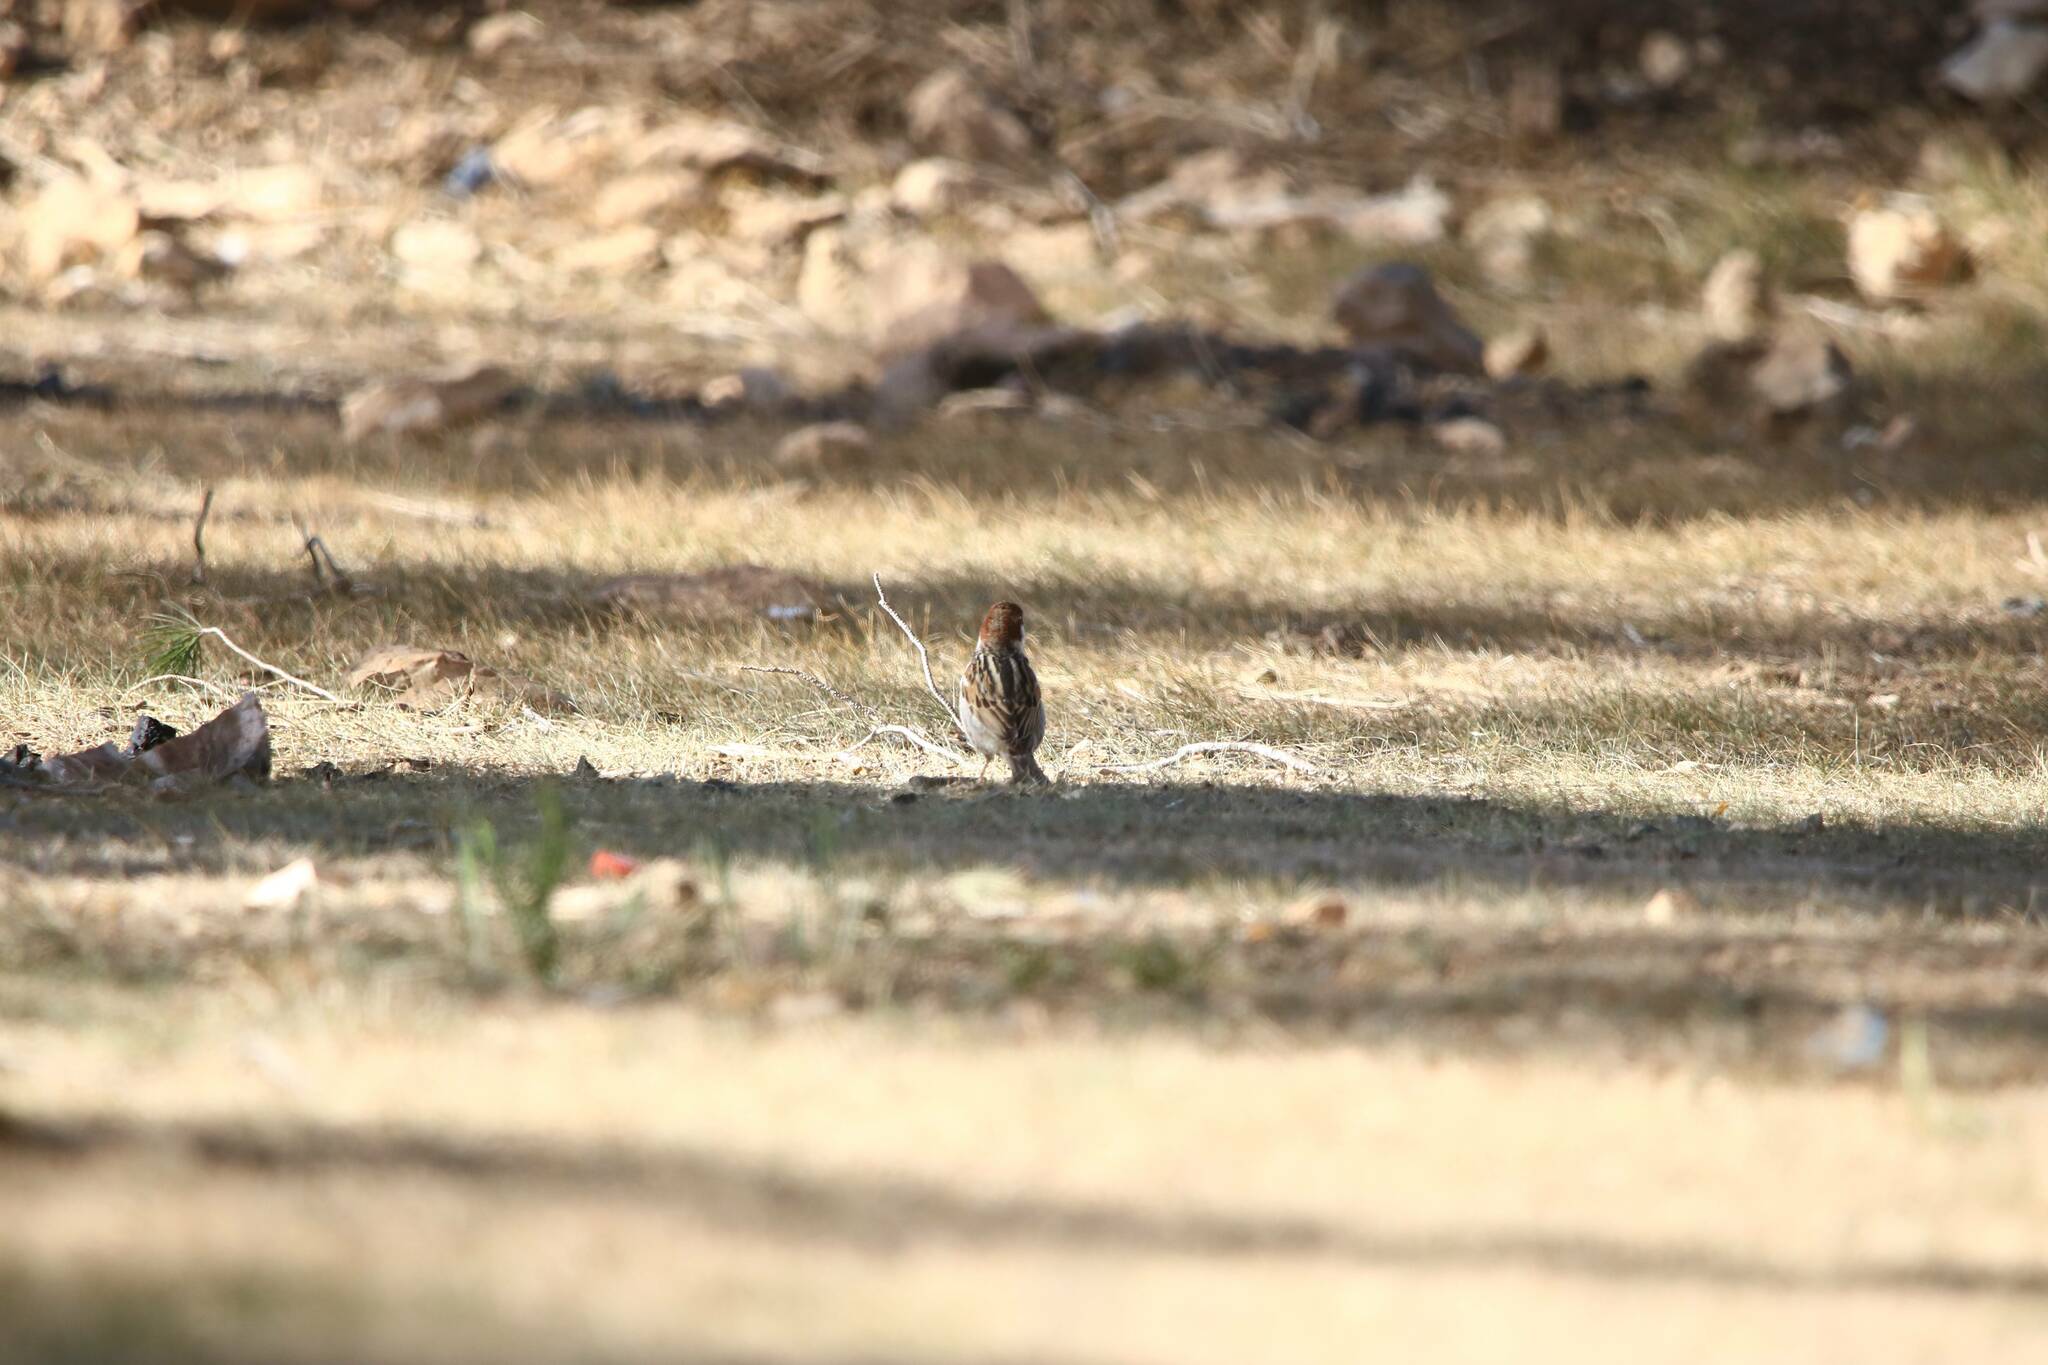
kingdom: Animalia
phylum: Chordata
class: Aves
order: Passeriformes
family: Passeridae
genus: Passer
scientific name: Passer hispaniolensis
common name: Spanish sparrow
